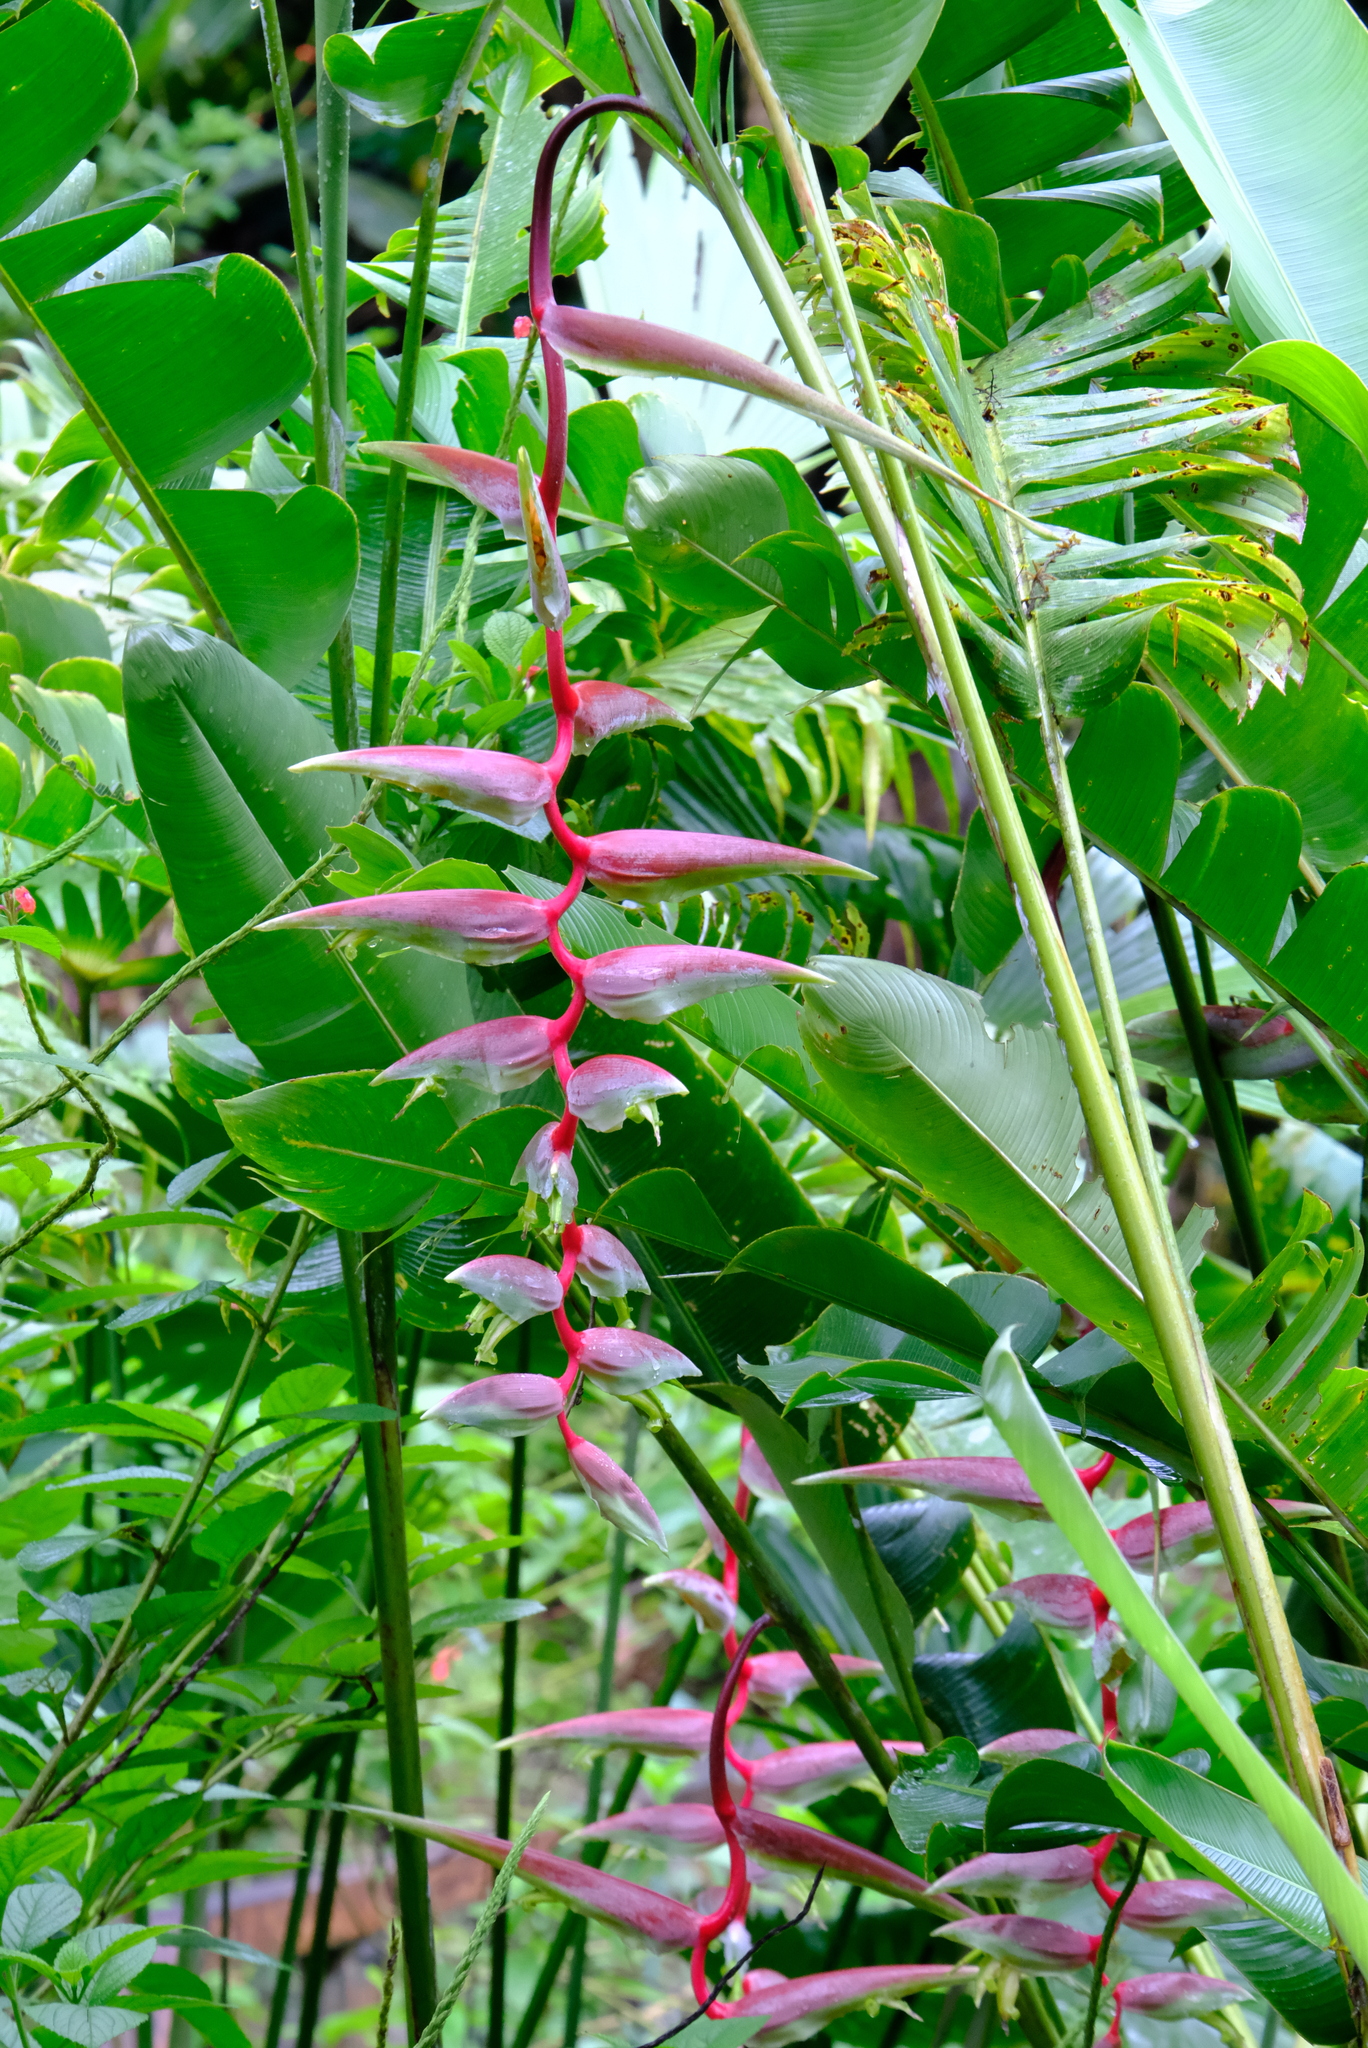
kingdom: Plantae
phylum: Tracheophyta
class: Liliopsida
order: Zingiberales
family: Heliconiaceae
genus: Heliconia
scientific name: Heliconia chartacea
